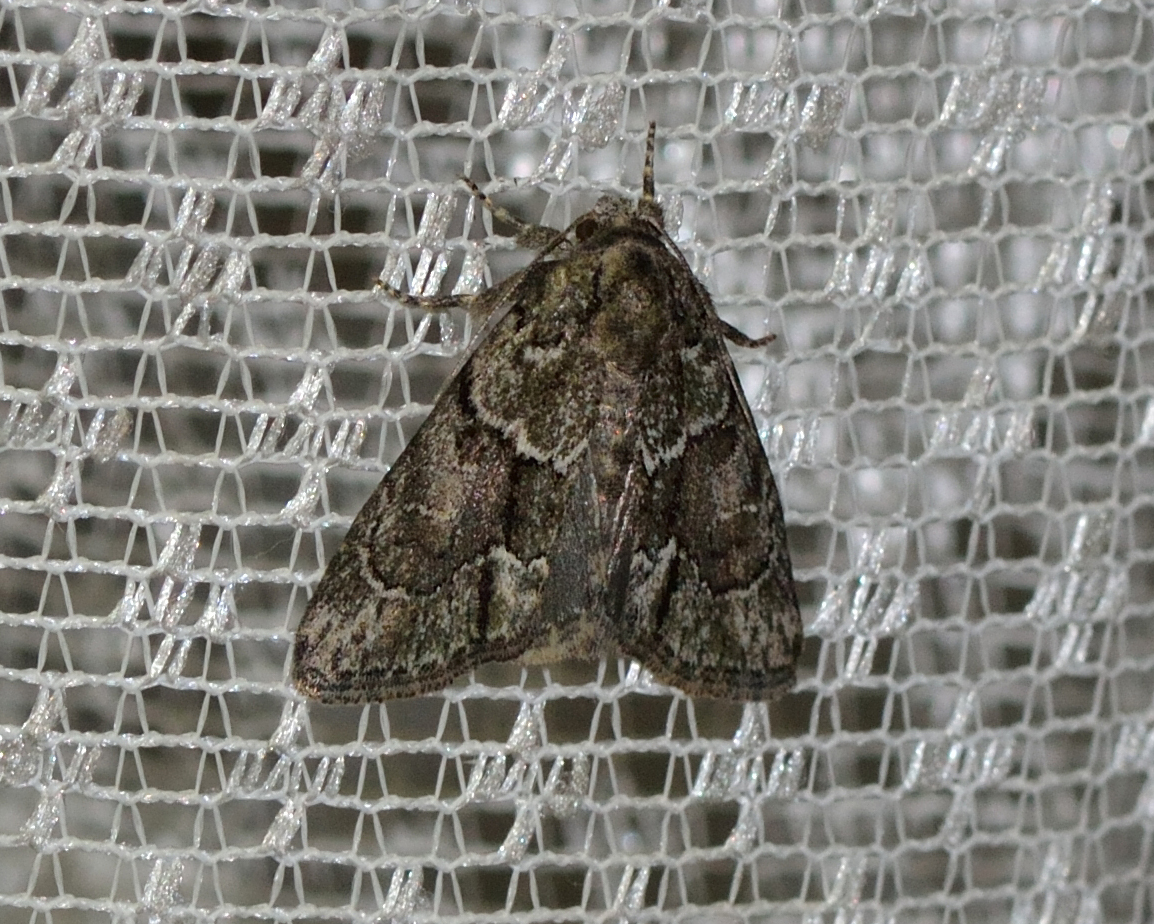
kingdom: Animalia
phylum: Arthropoda
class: Insecta
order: Lepidoptera
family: Noctuidae
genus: Cryphia
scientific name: Cryphia fraudatricula
